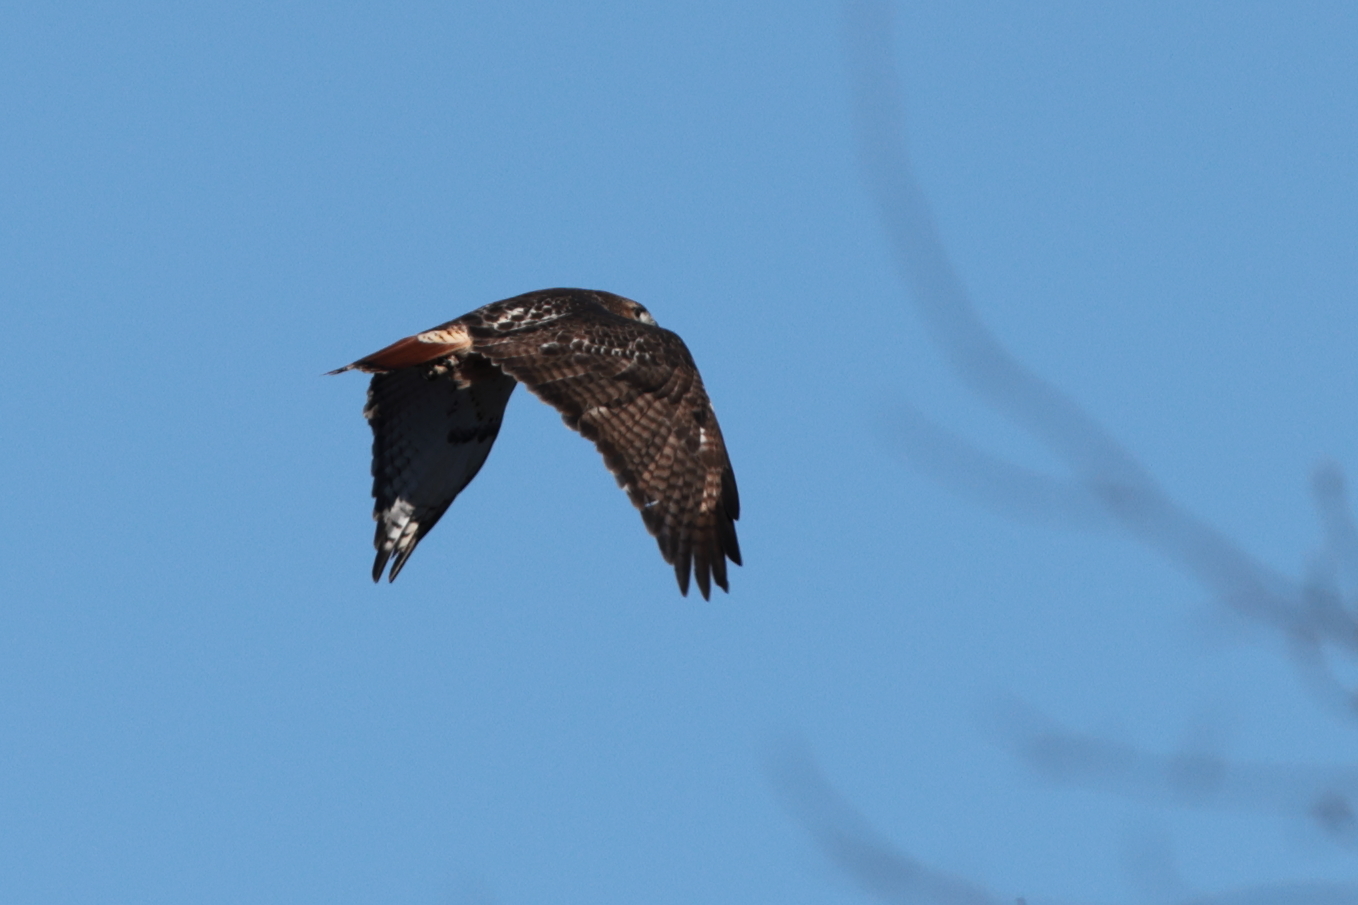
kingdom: Animalia
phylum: Chordata
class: Aves
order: Accipitriformes
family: Accipitridae
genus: Buteo
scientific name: Buteo jamaicensis
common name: Red-tailed hawk
